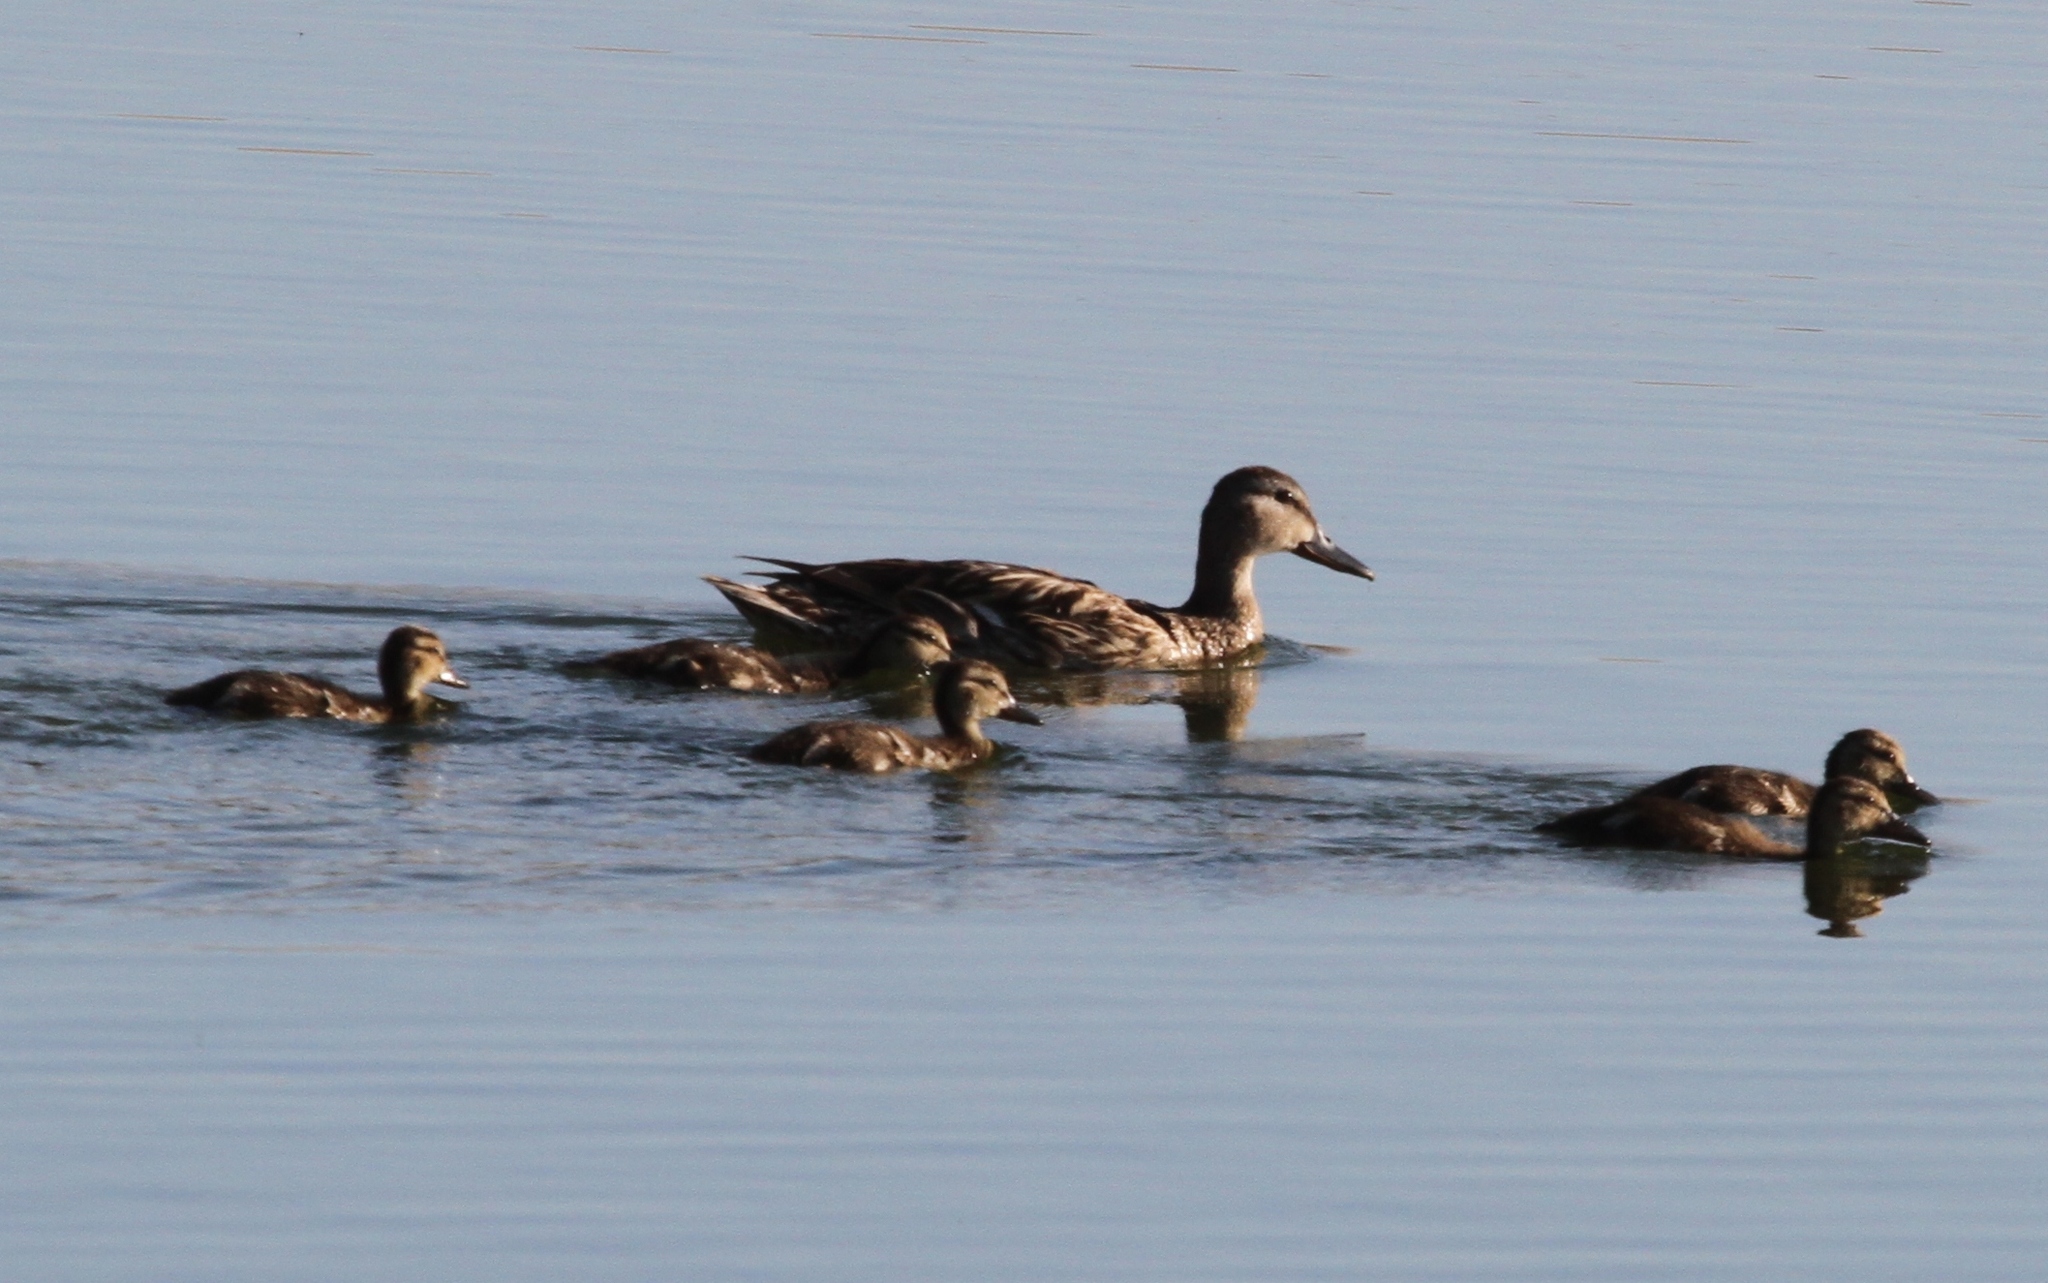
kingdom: Animalia
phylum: Chordata
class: Aves
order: Anseriformes
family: Anatidae
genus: Anas
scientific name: Anas platyrhynchos
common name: Mallard
